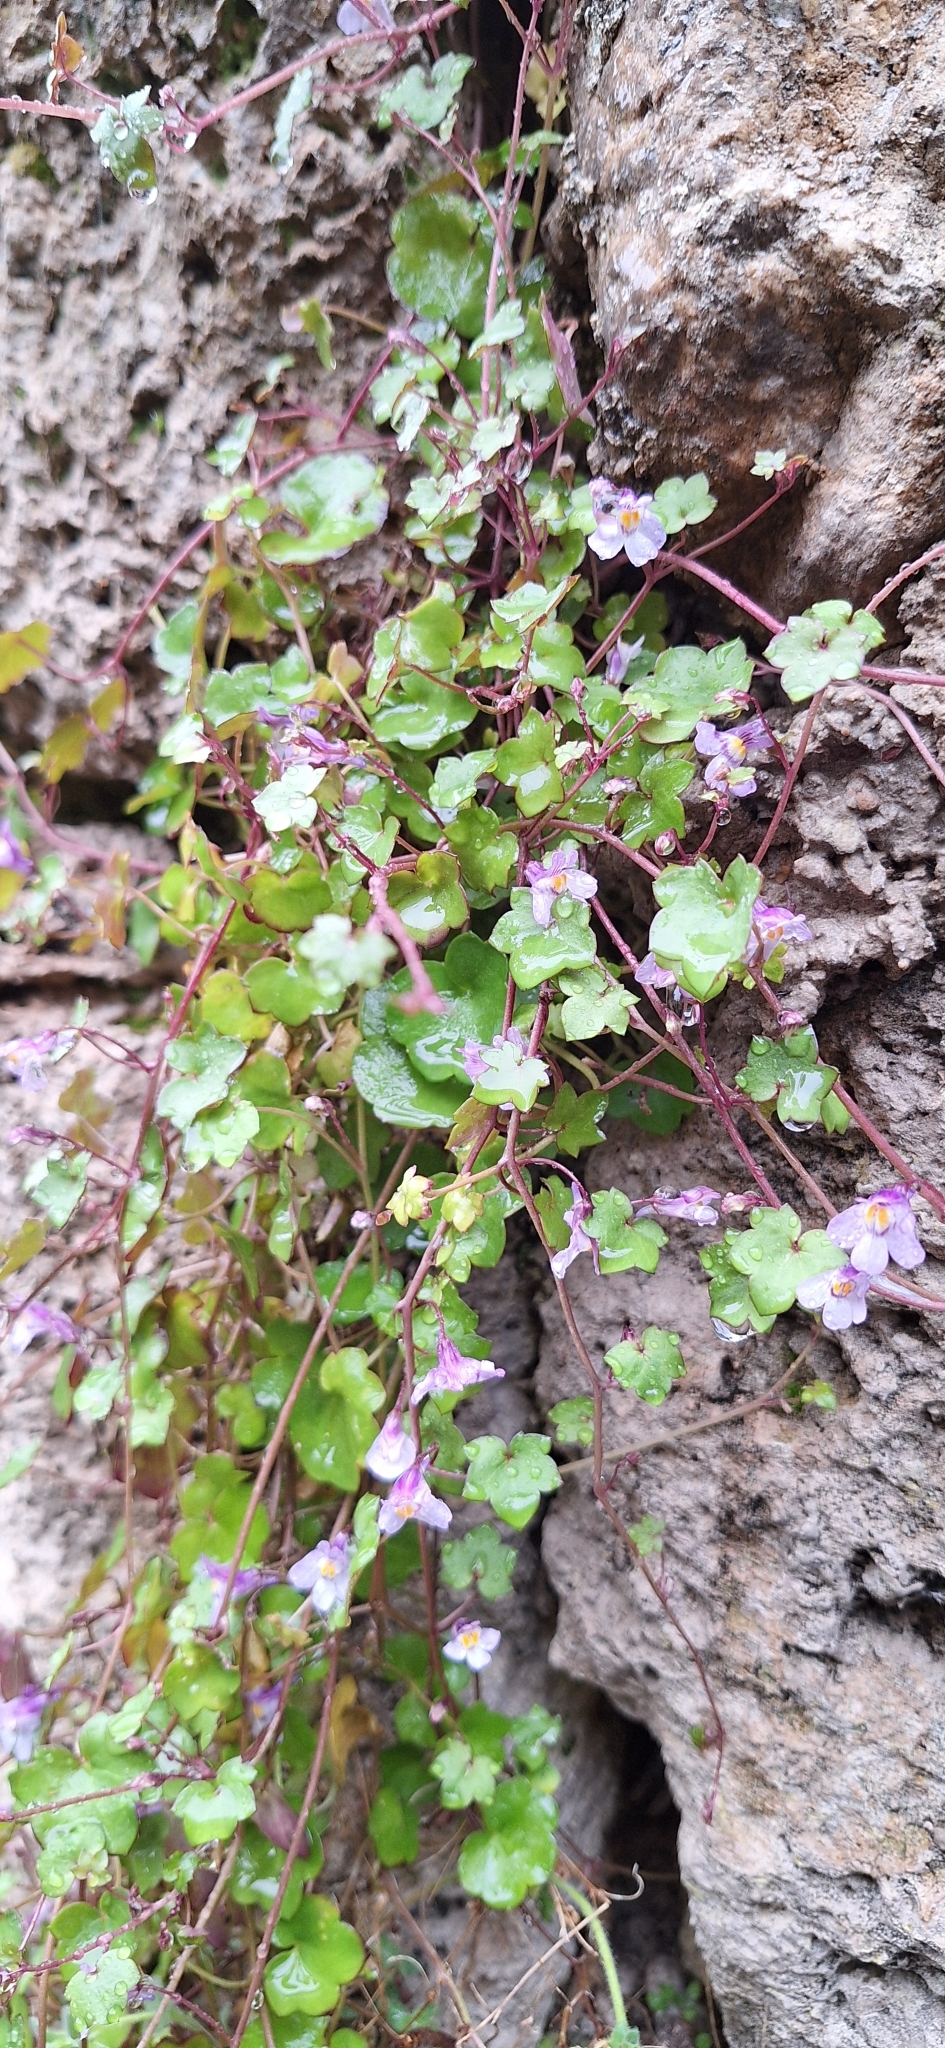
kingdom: Plantae
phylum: Tracheophyta
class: Magnoliopsida
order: Lamiales
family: Plantaginaceae
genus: Cymbalaria
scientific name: Cymbalaria muralis
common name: Ivy-leaved toadflax
